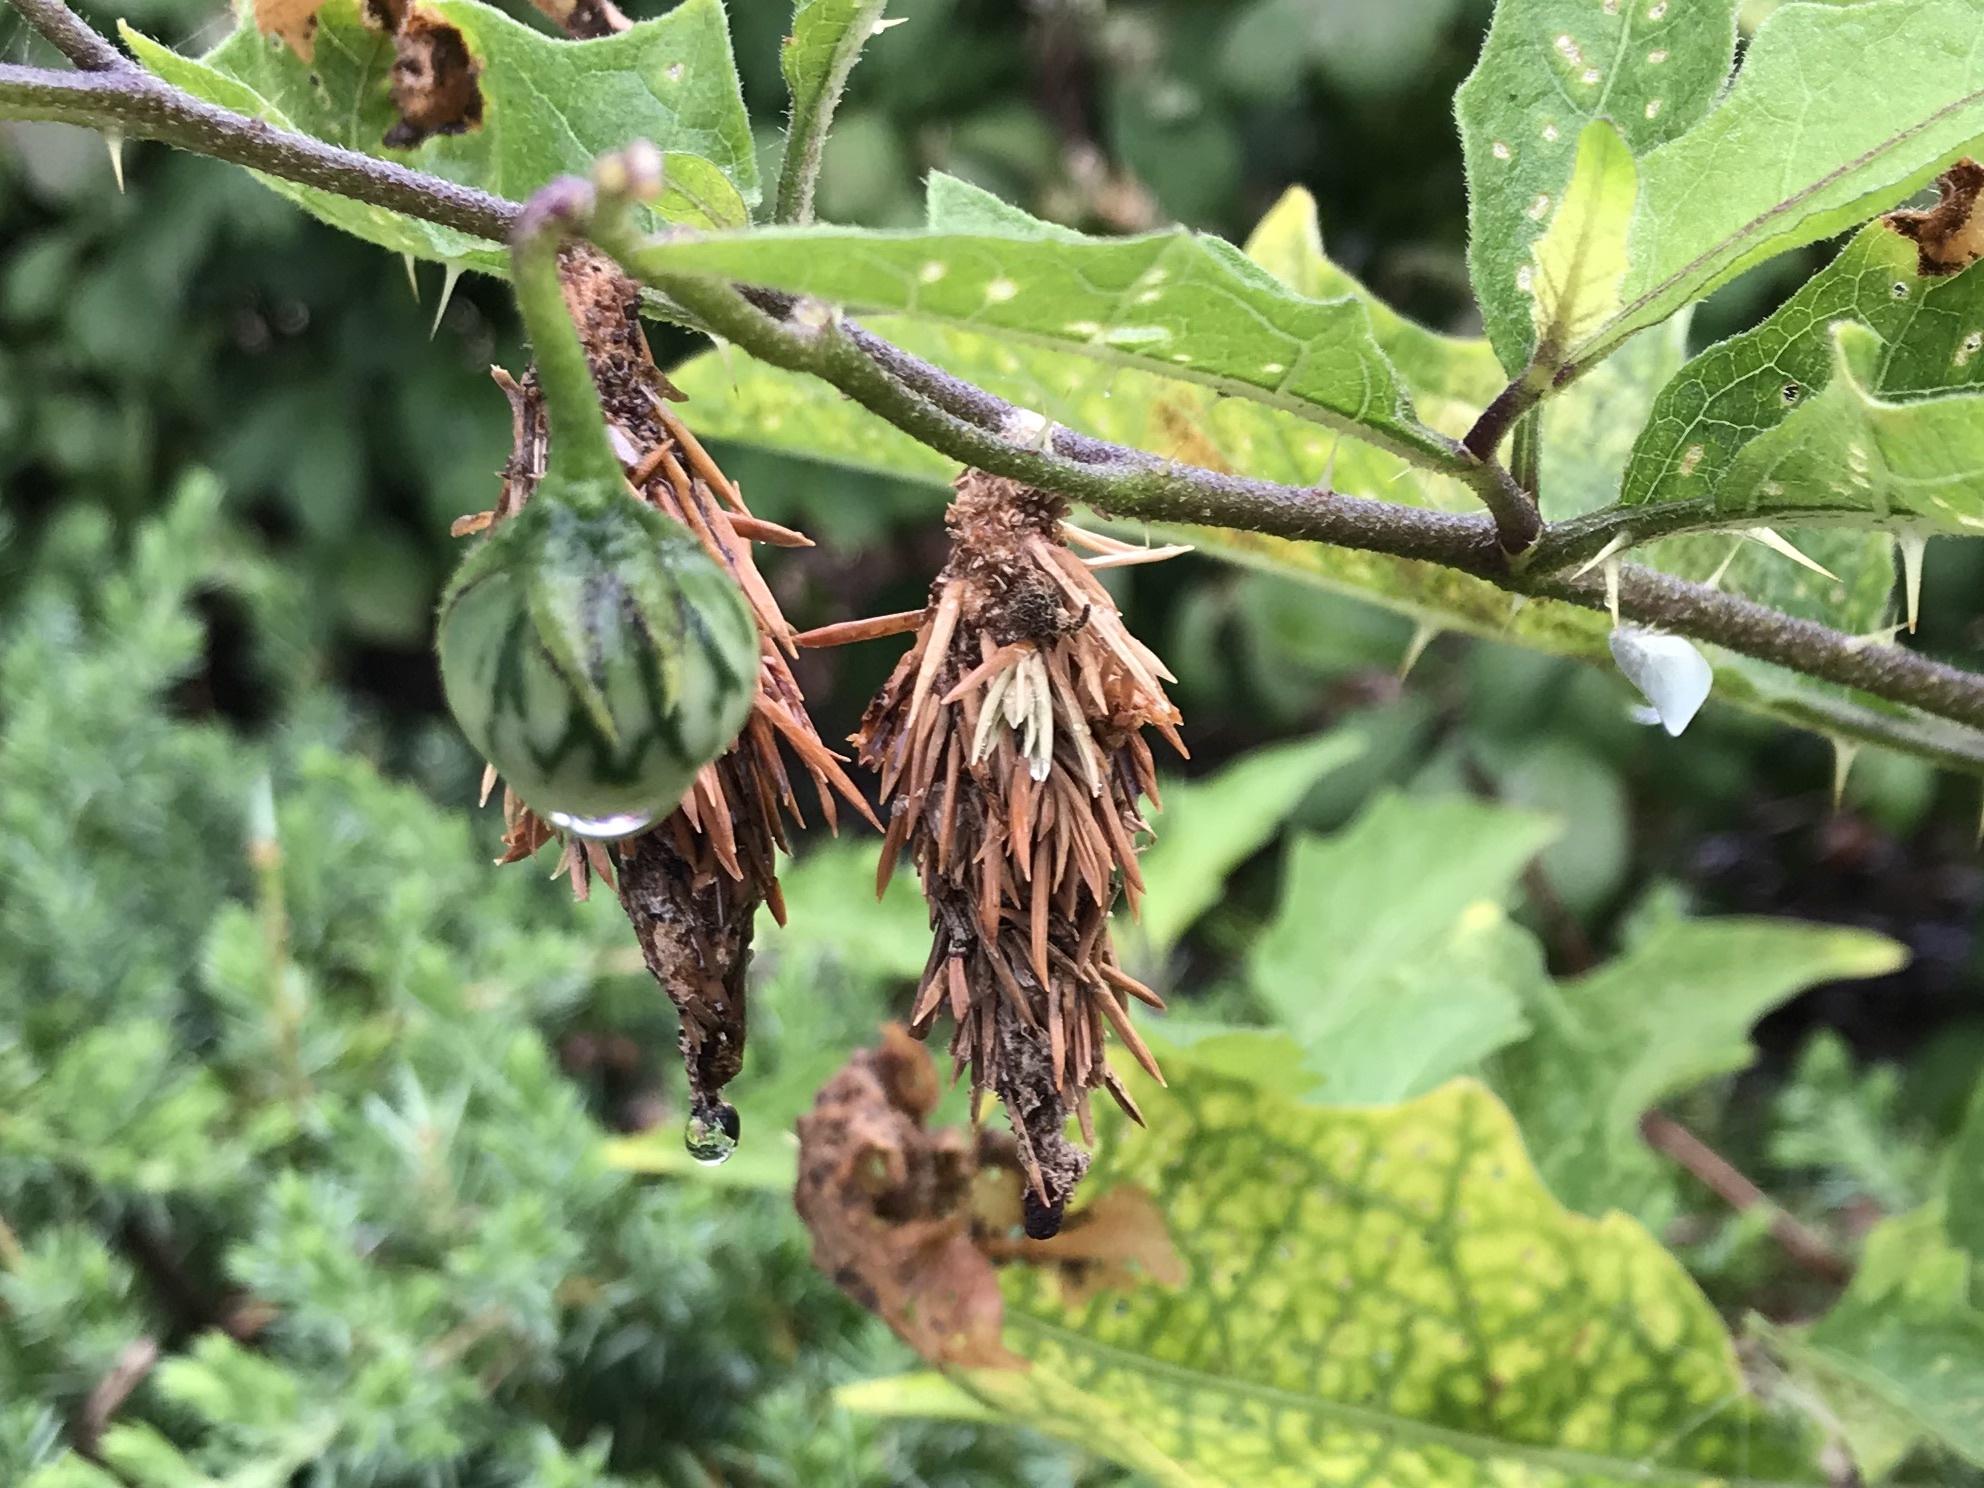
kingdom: Animalia
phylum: Arthropoda
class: Insecta
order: Lepidoptera
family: Psychidae
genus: Thyridopteryx
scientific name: Thyridopteryx ephemeraeformis
